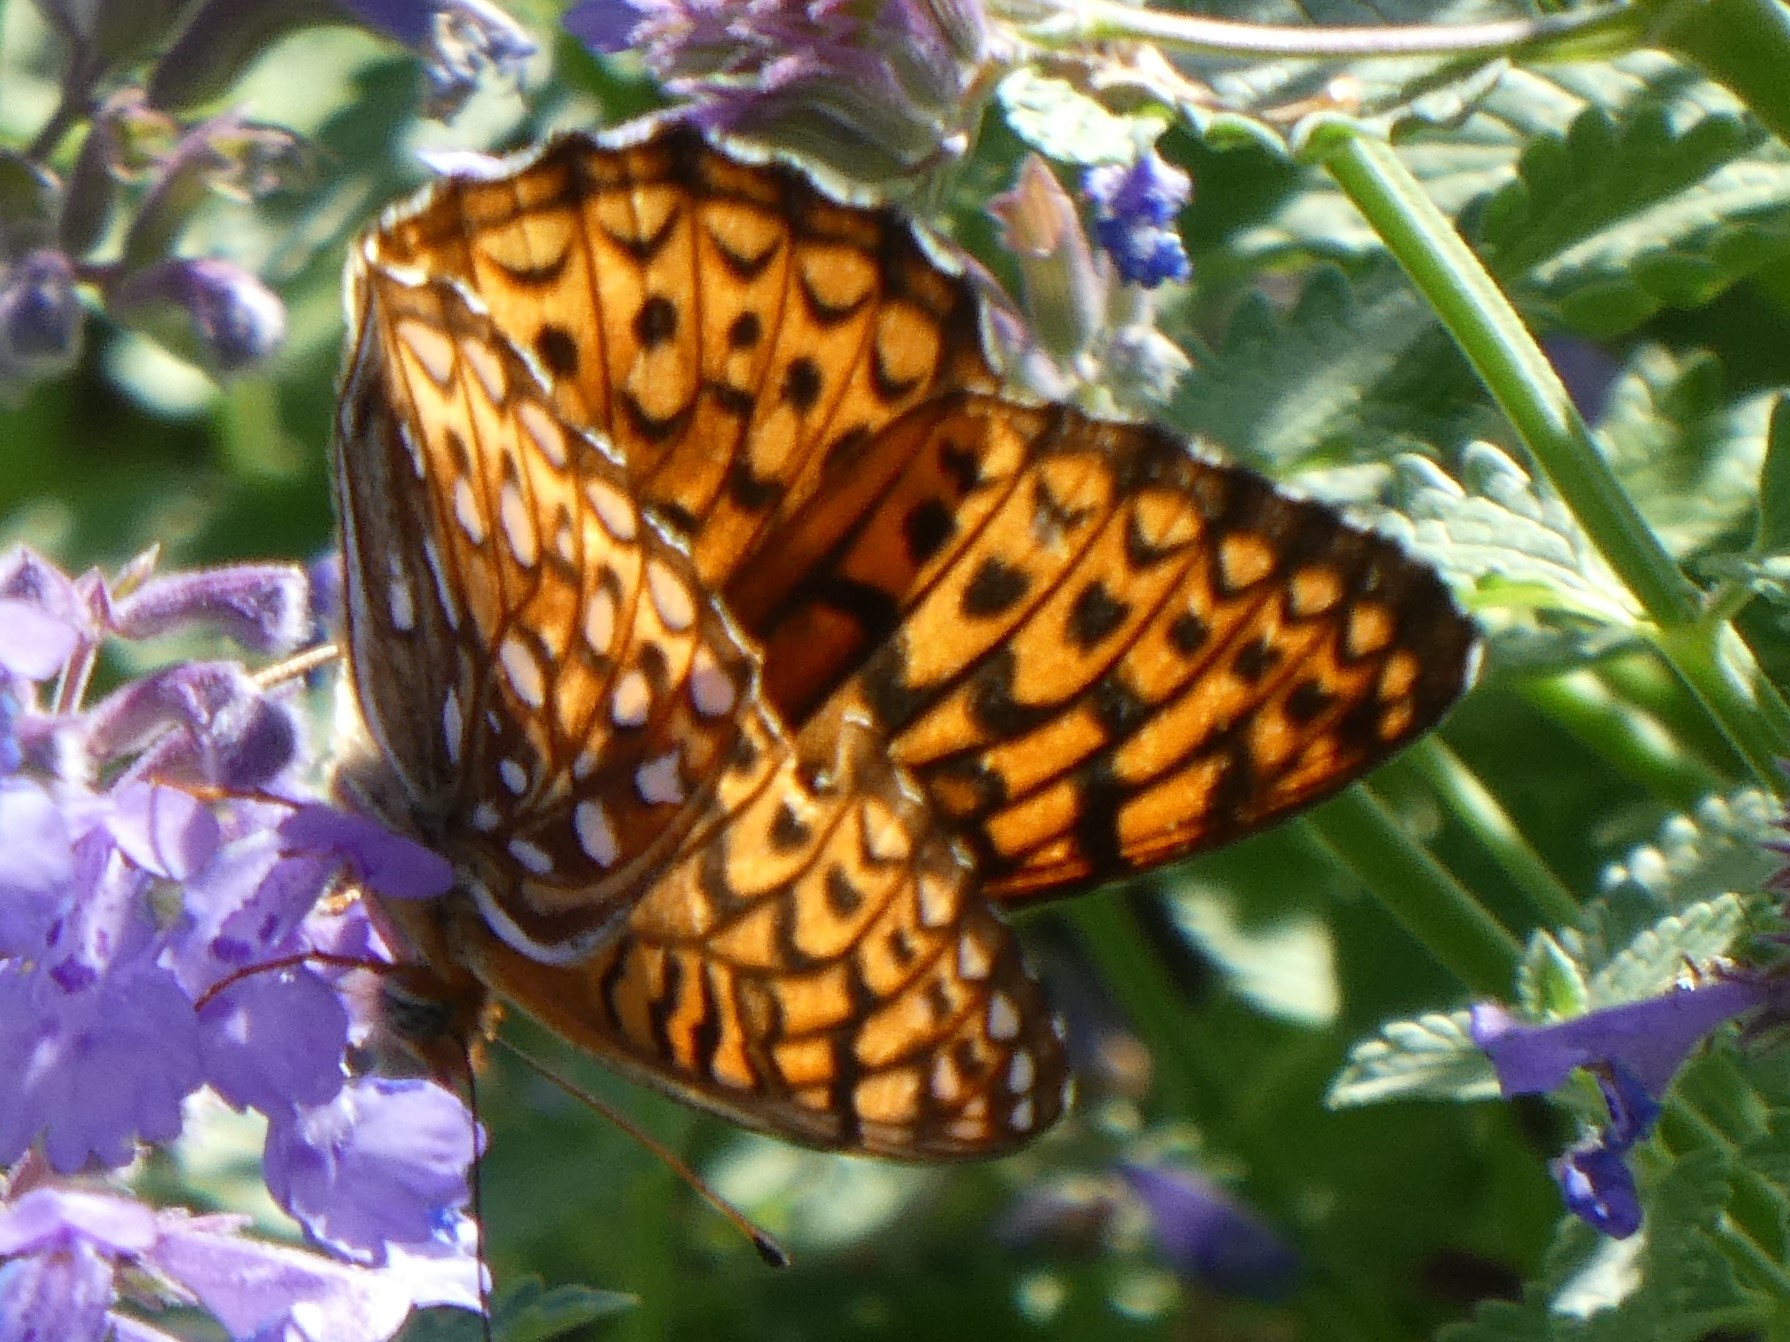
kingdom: Animalia
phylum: Arthropoda
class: Insecta
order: Lepidoptera
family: Nymphalidae
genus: Speyeria
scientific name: Speyeria atlantis
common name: Atlantis fritillary
